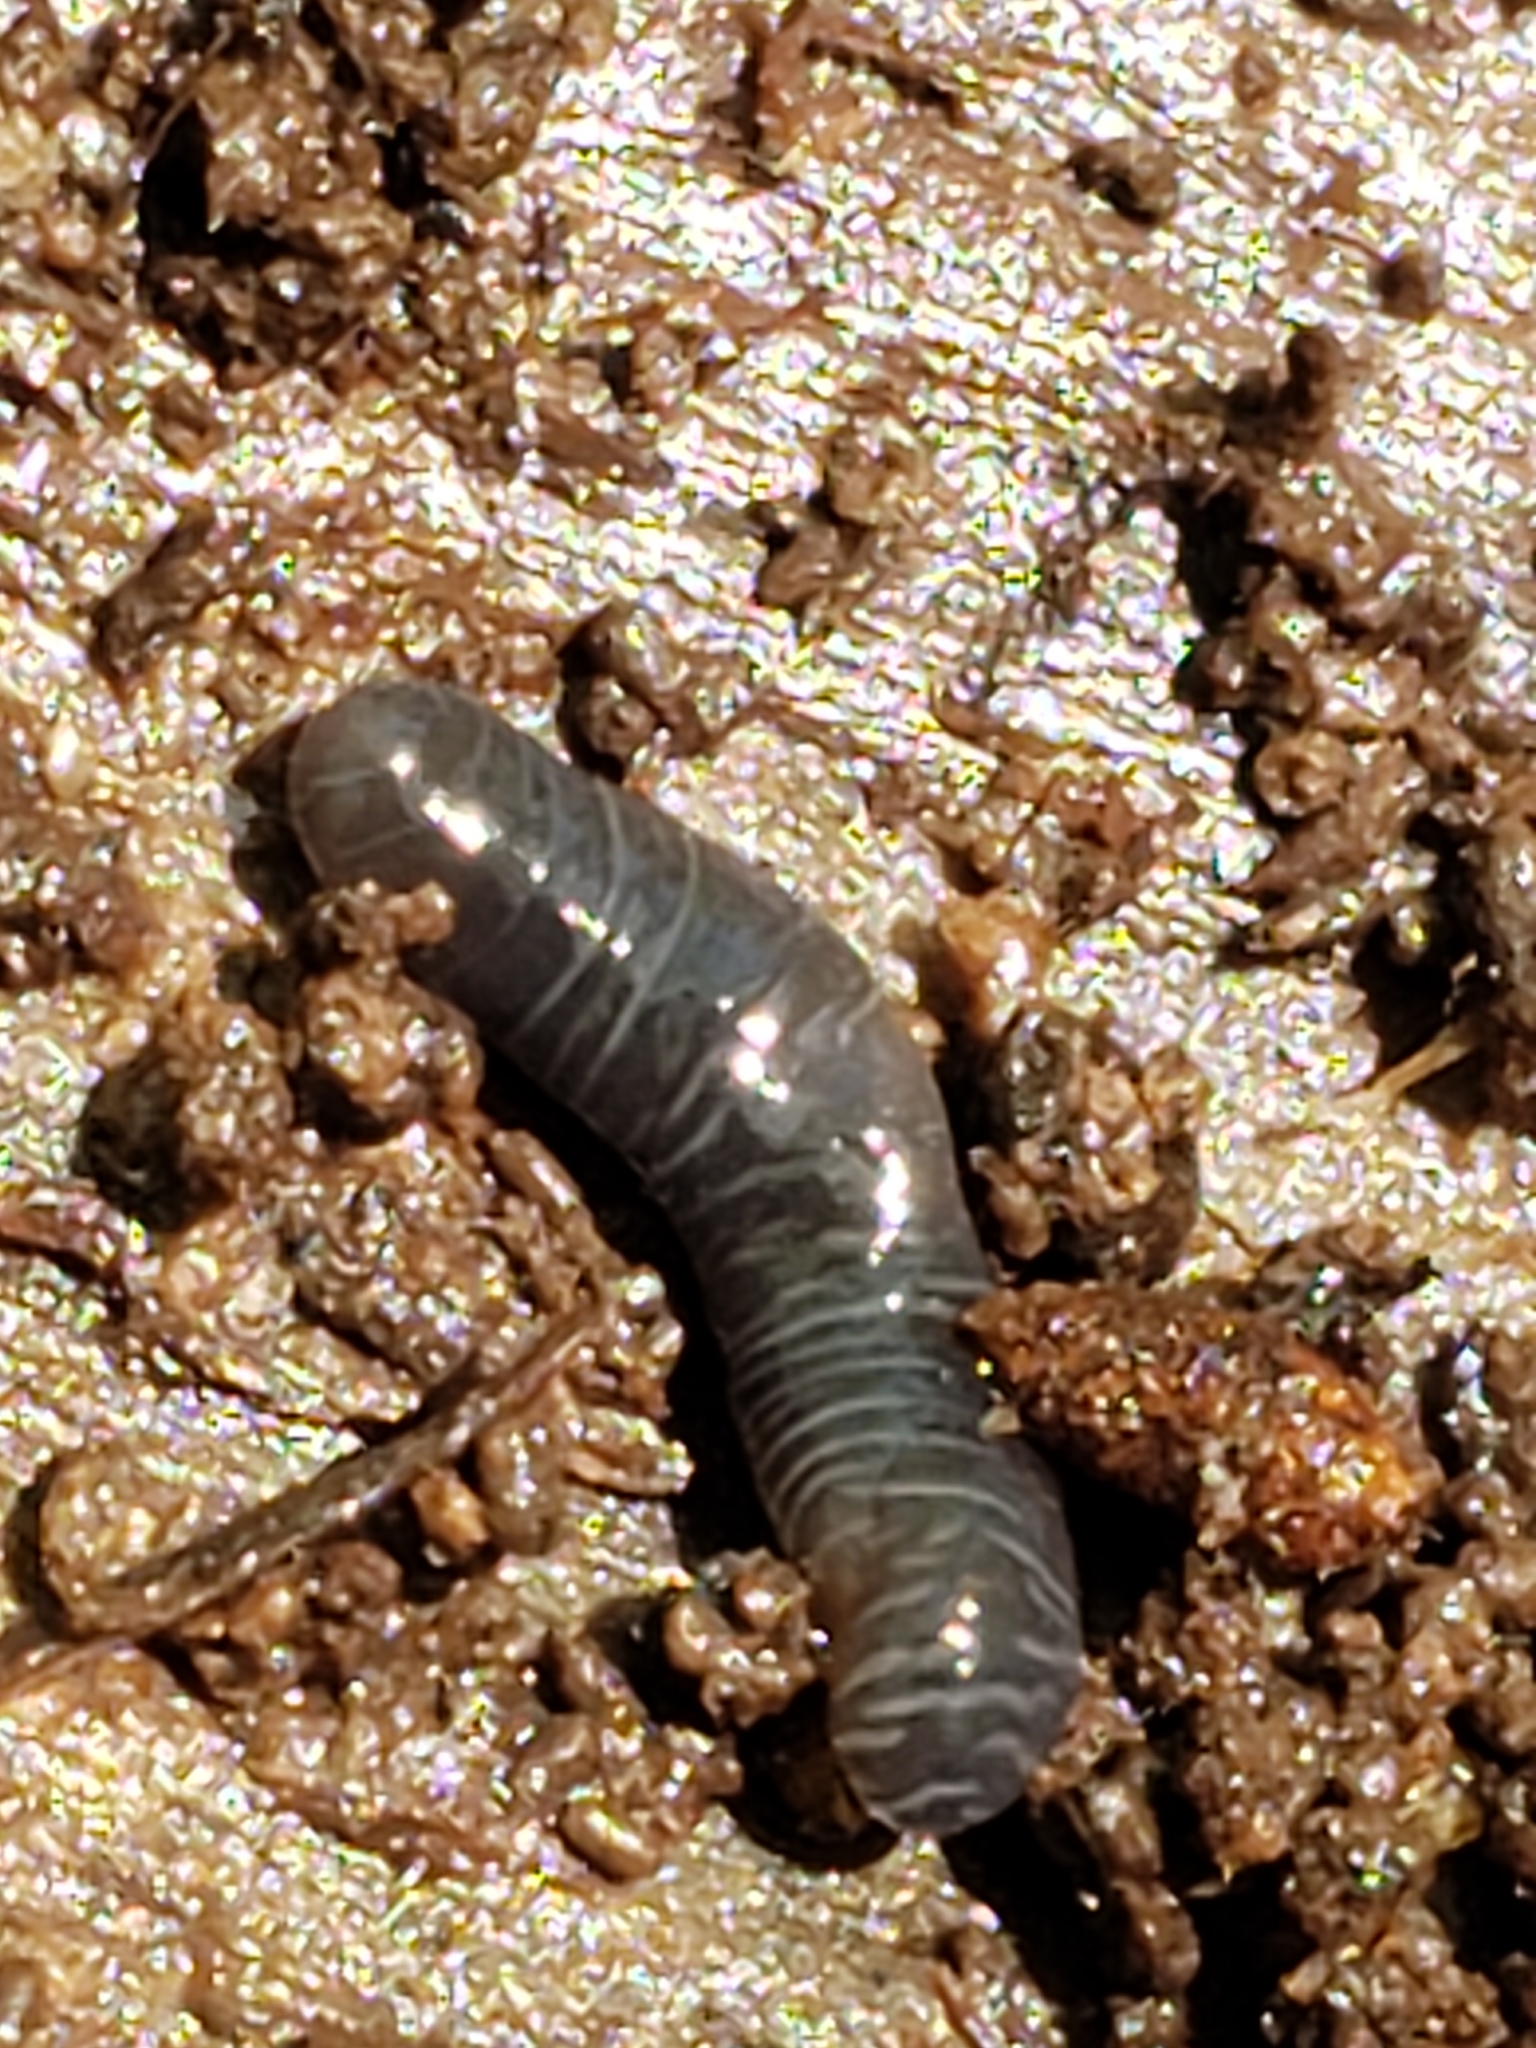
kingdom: Animalia
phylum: Platyhelminthes
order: Tricladida
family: Geoplanidae
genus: Microplana
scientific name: Microplana terrestris
